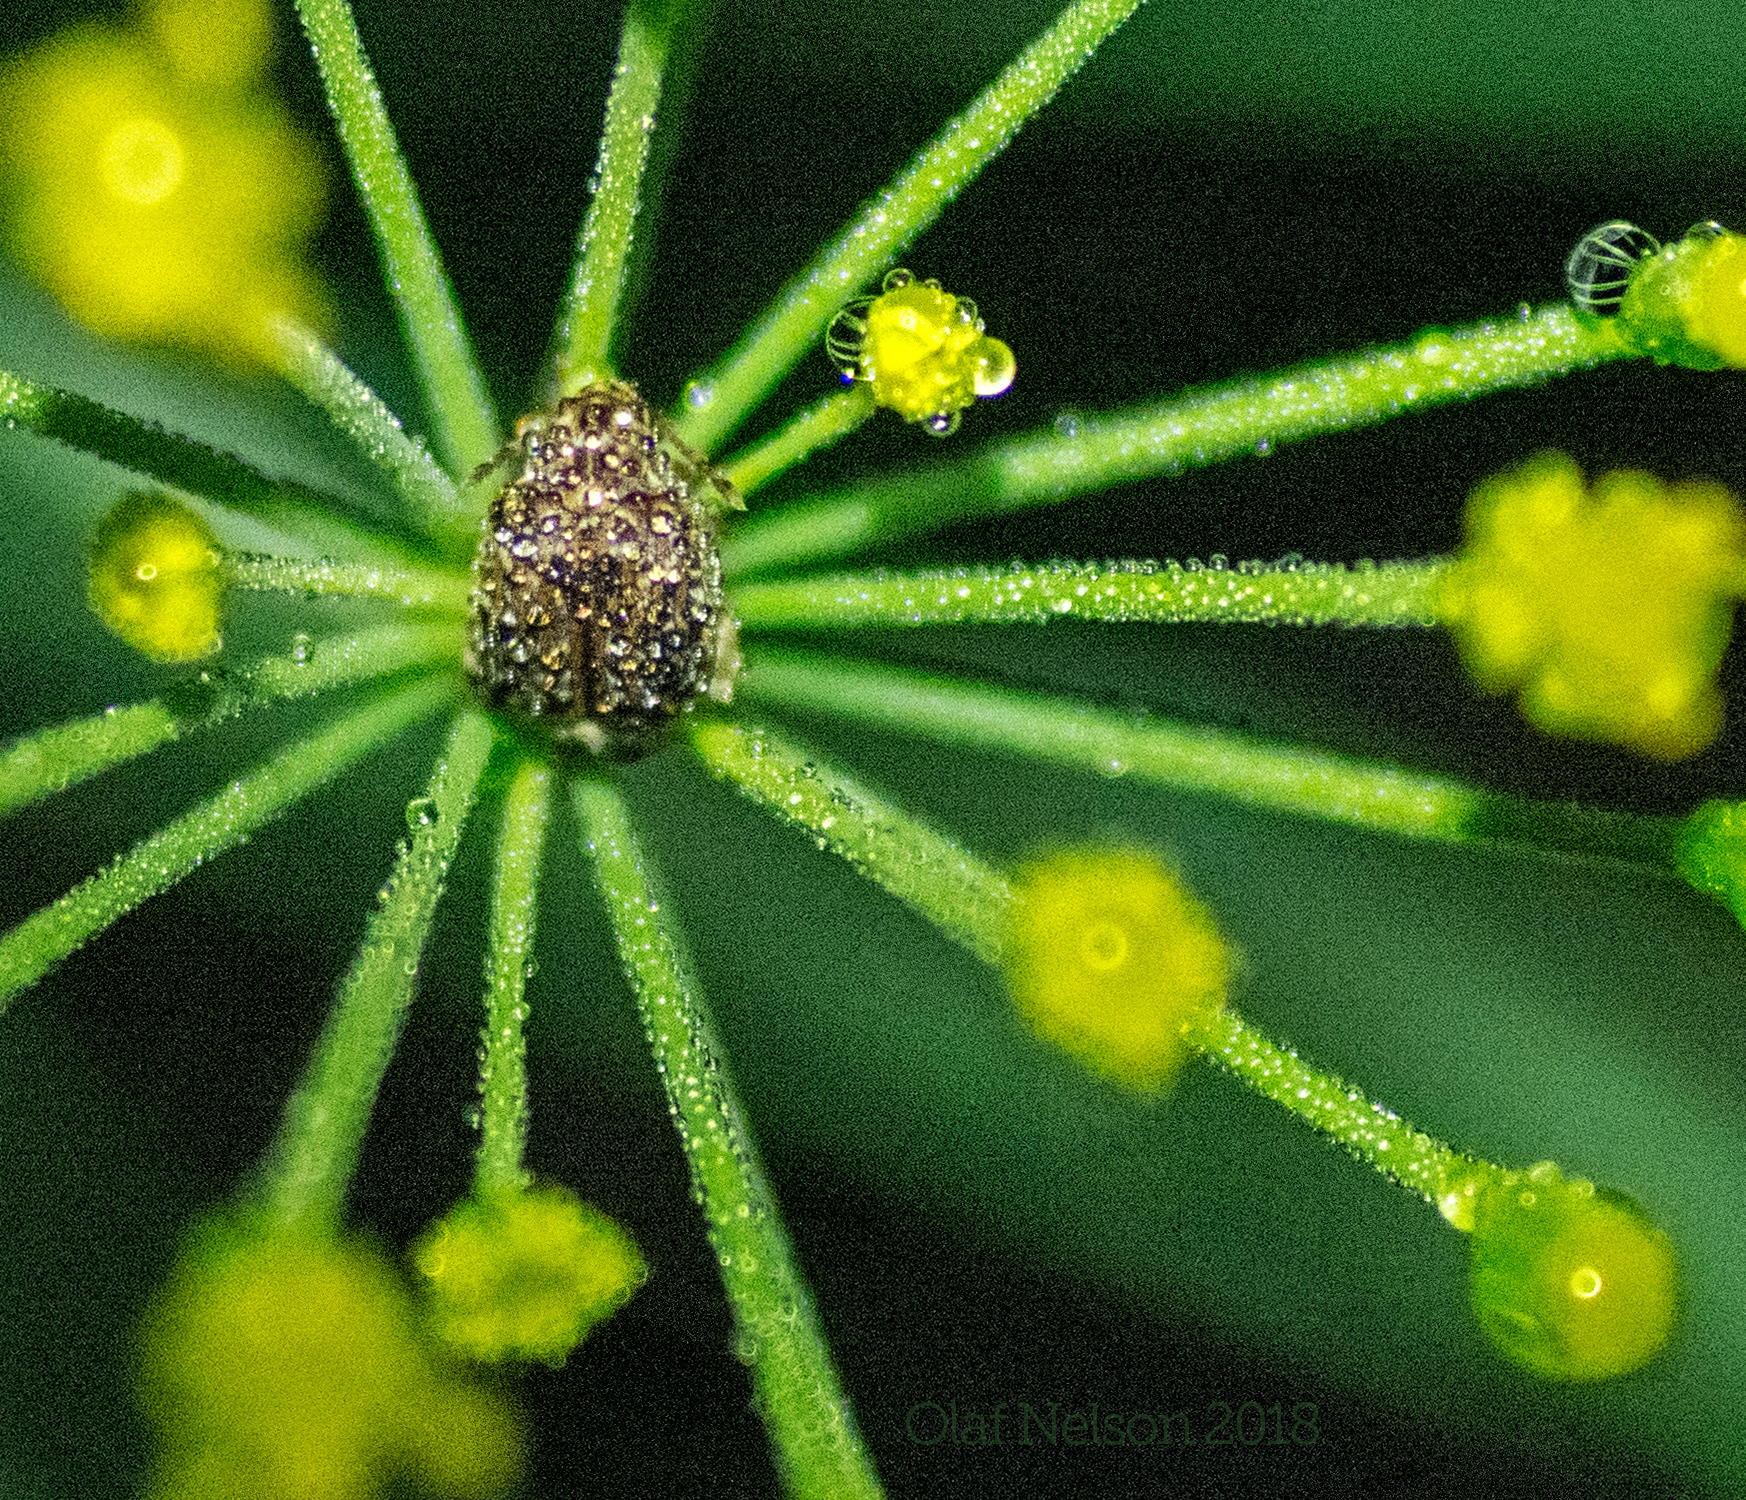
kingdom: Animalia
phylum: Arthropoda
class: Insecta
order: Coleoptera
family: Chrysomelidae
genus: Gibbobruchus
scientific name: Gibbobruchus mimus
